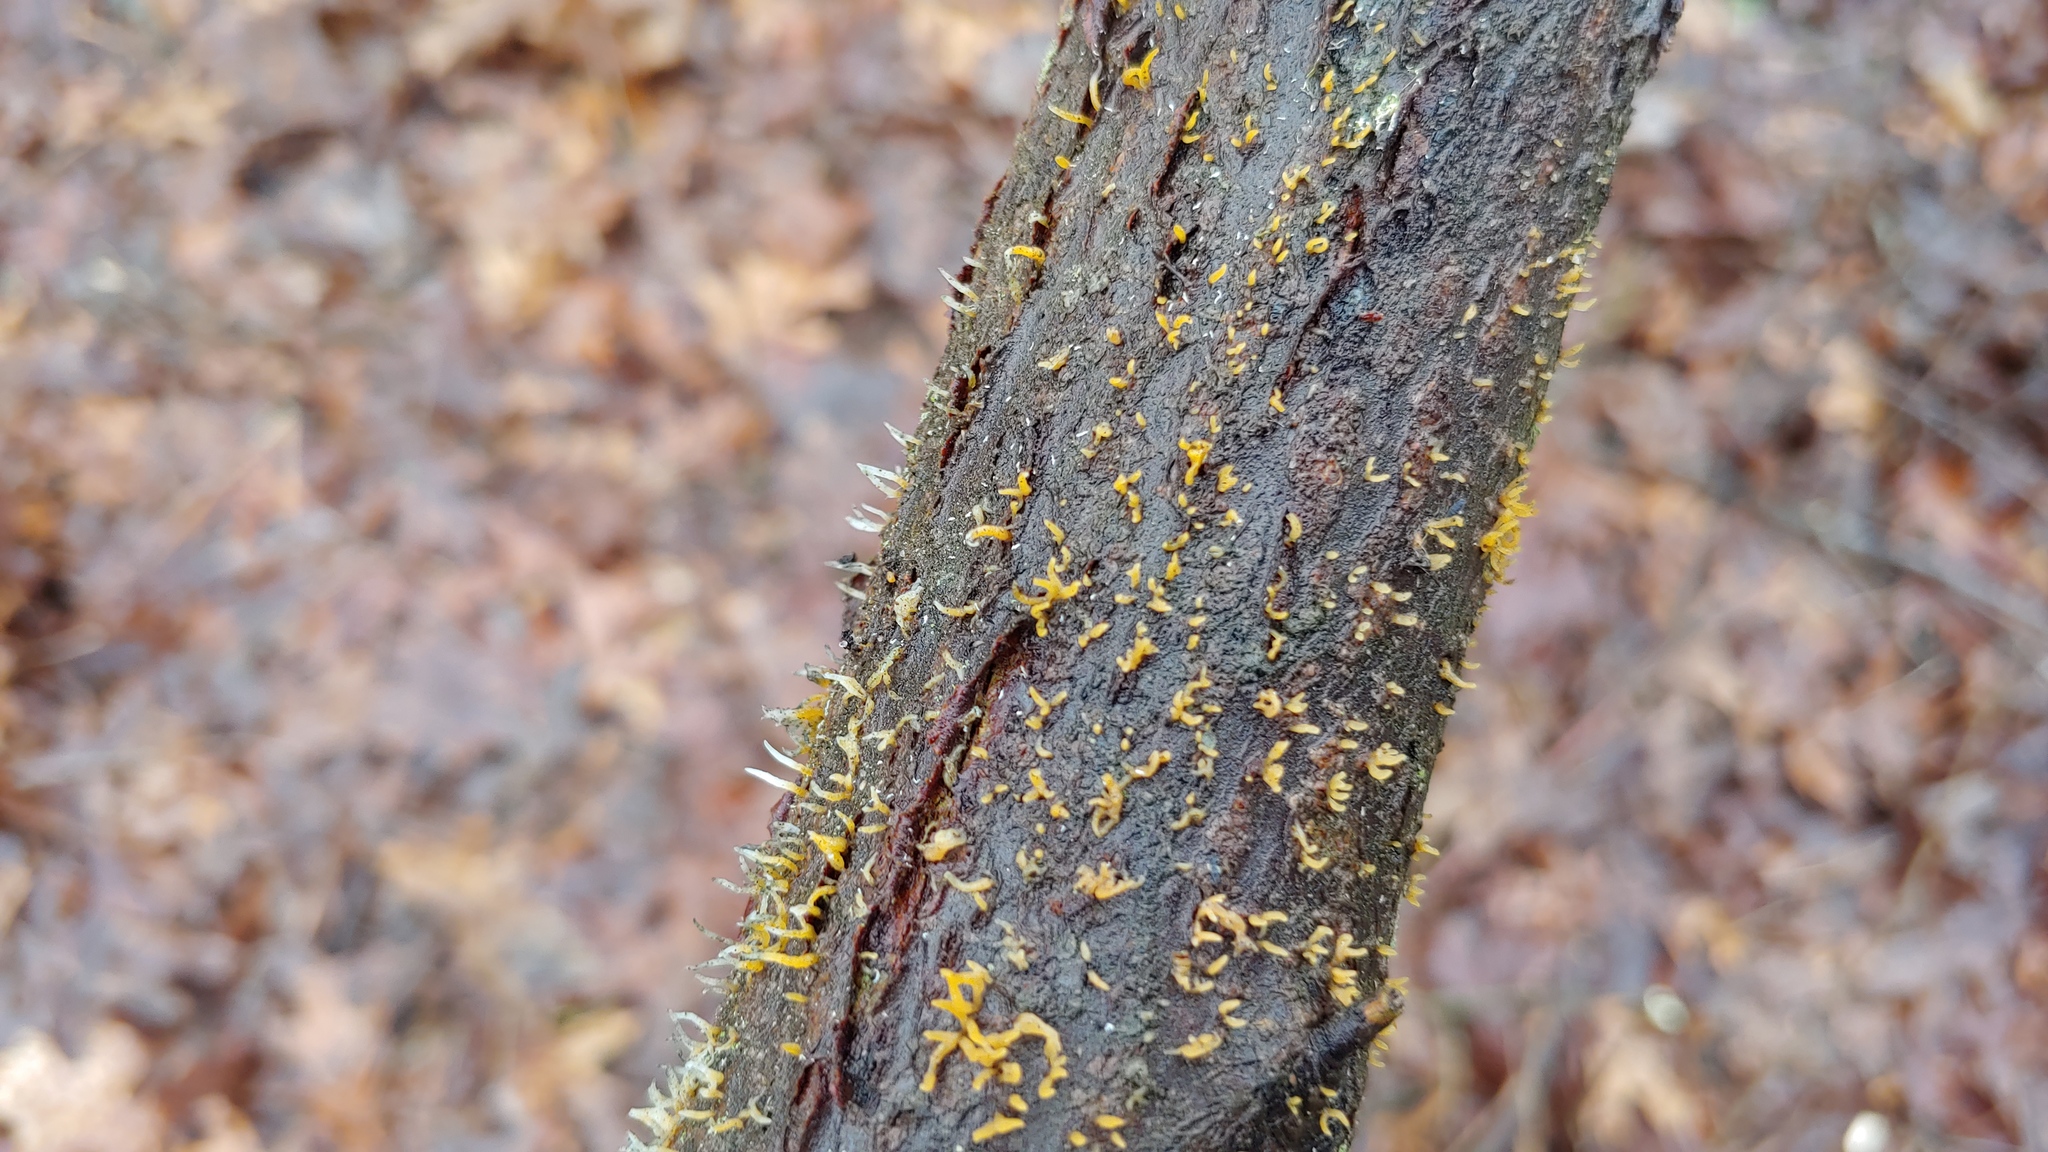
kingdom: Fungi
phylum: Basidiomycota
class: Dacrymycetes
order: Dacrymycetales
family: Dacrymycetaceae
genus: Calocera
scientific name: Calocera cornea
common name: Small stagshorn
